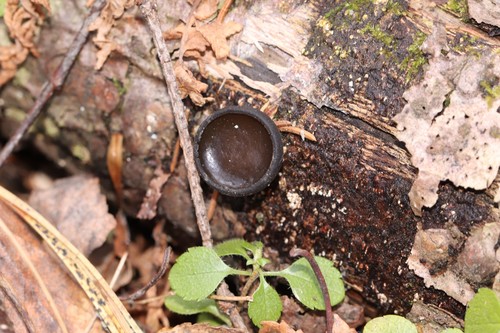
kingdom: Fungi
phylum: Ascomycota
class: Pezizomycetes
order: Pezizales
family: Sarcosomataceae
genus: Pseudoplectania
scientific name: Pseudoplectania melaena
